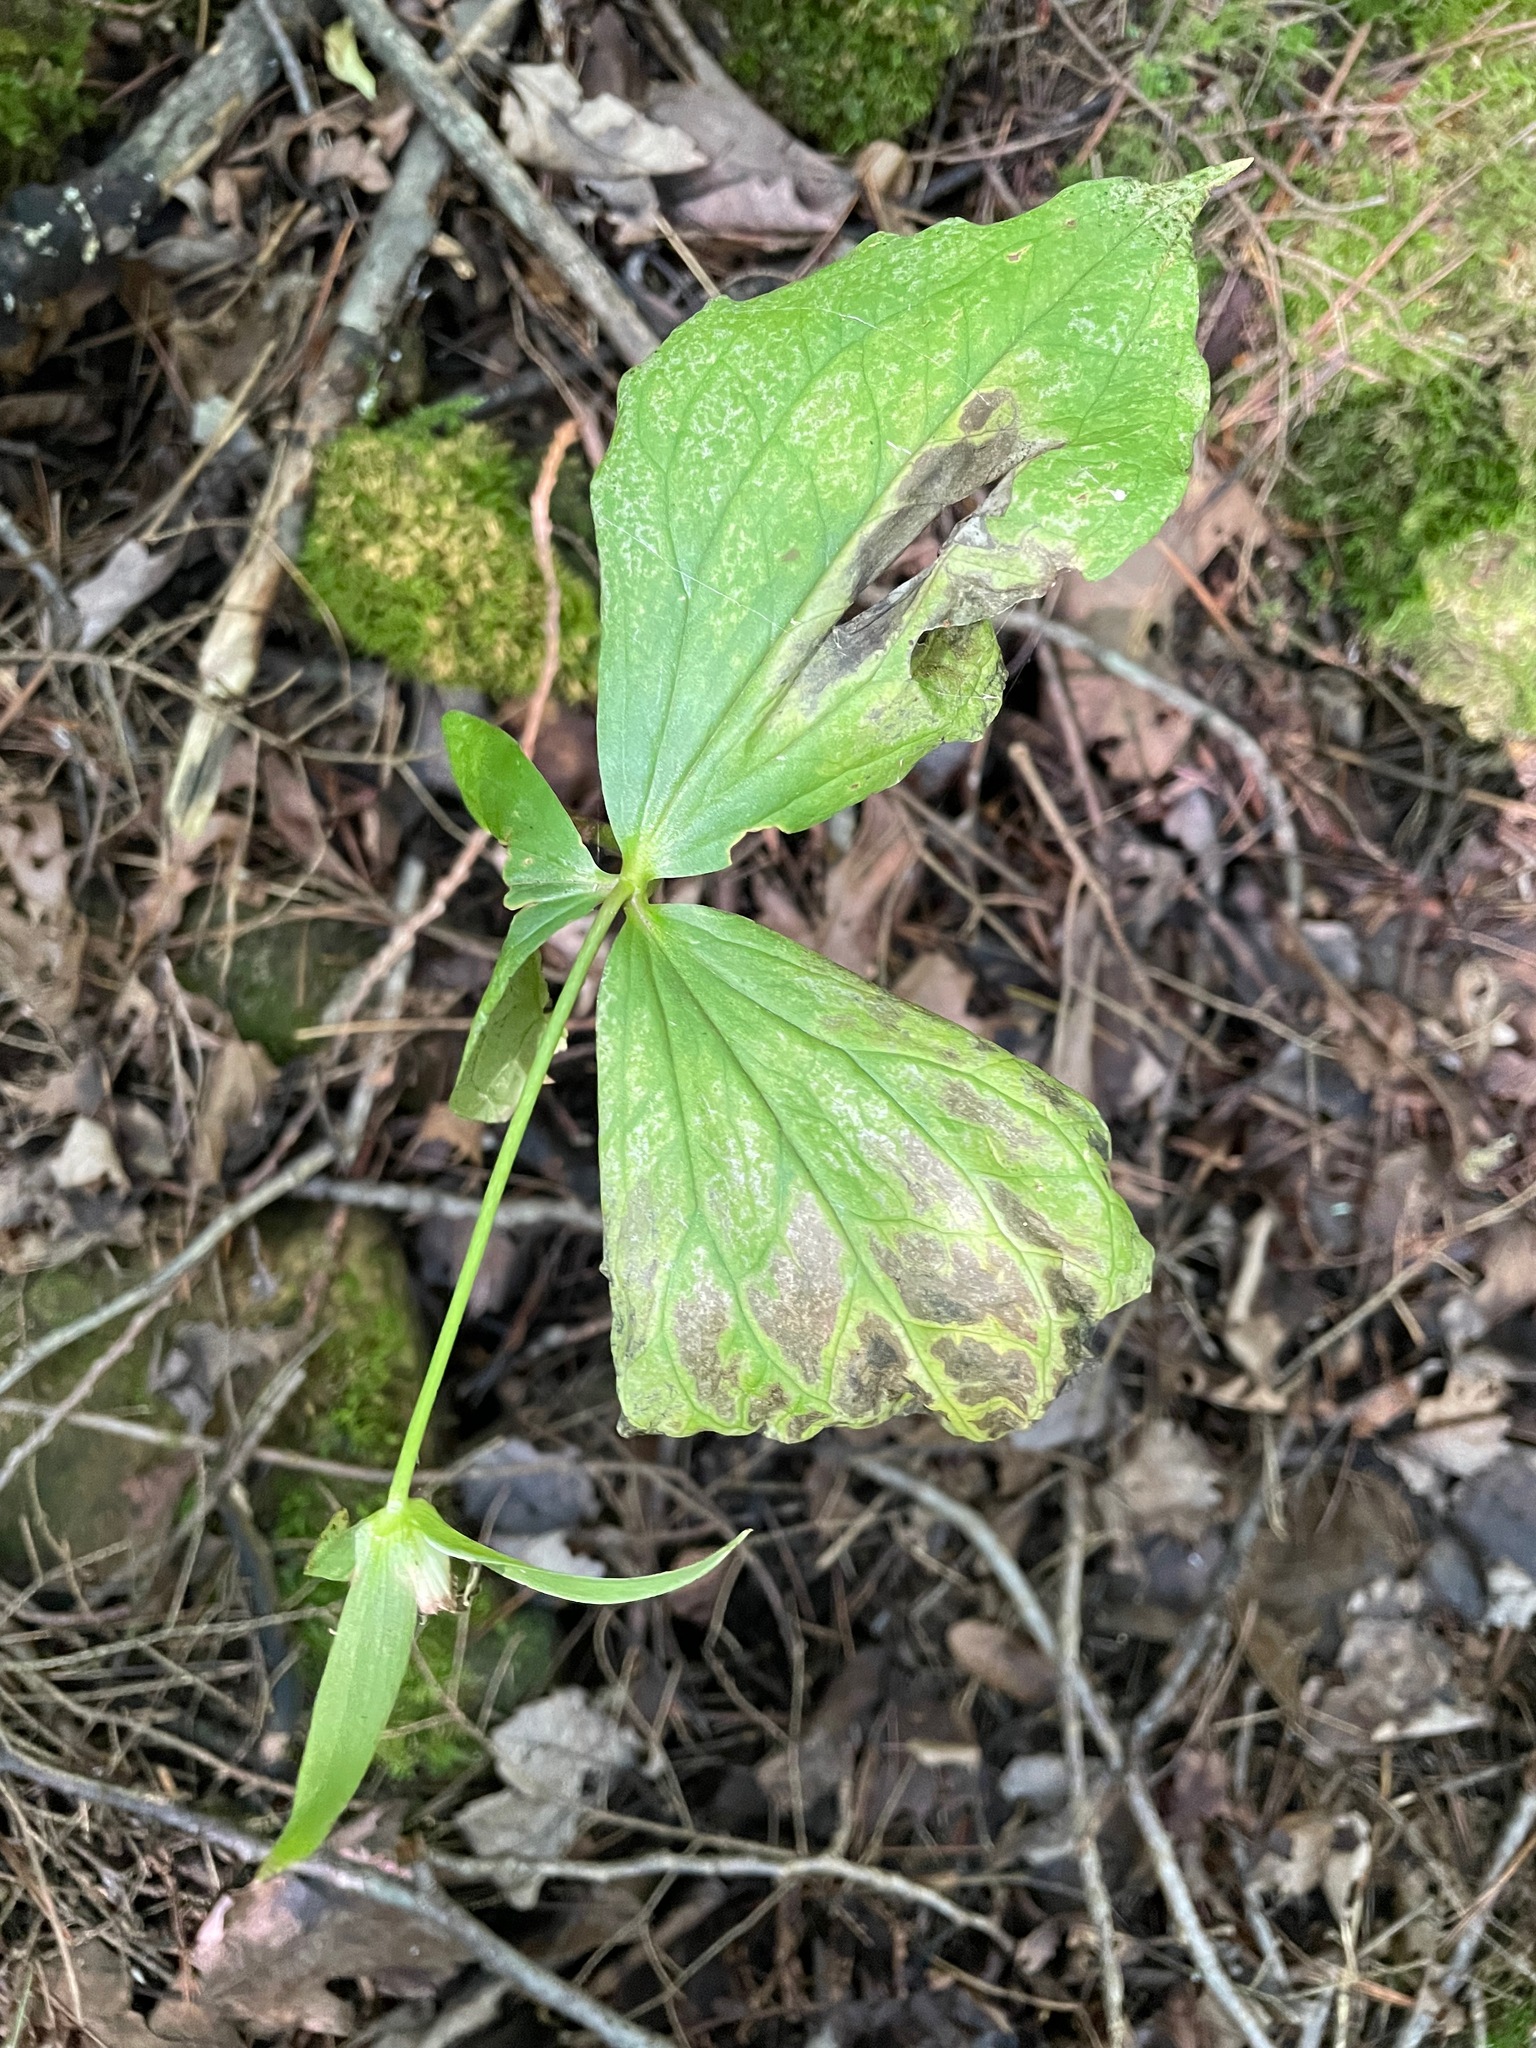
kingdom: Plantae
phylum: Tracheophyta
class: Liliopsida
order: Liliales
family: Melanthiaceae
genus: Trillium
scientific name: Trillium grandiflorum
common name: Great white trillium
